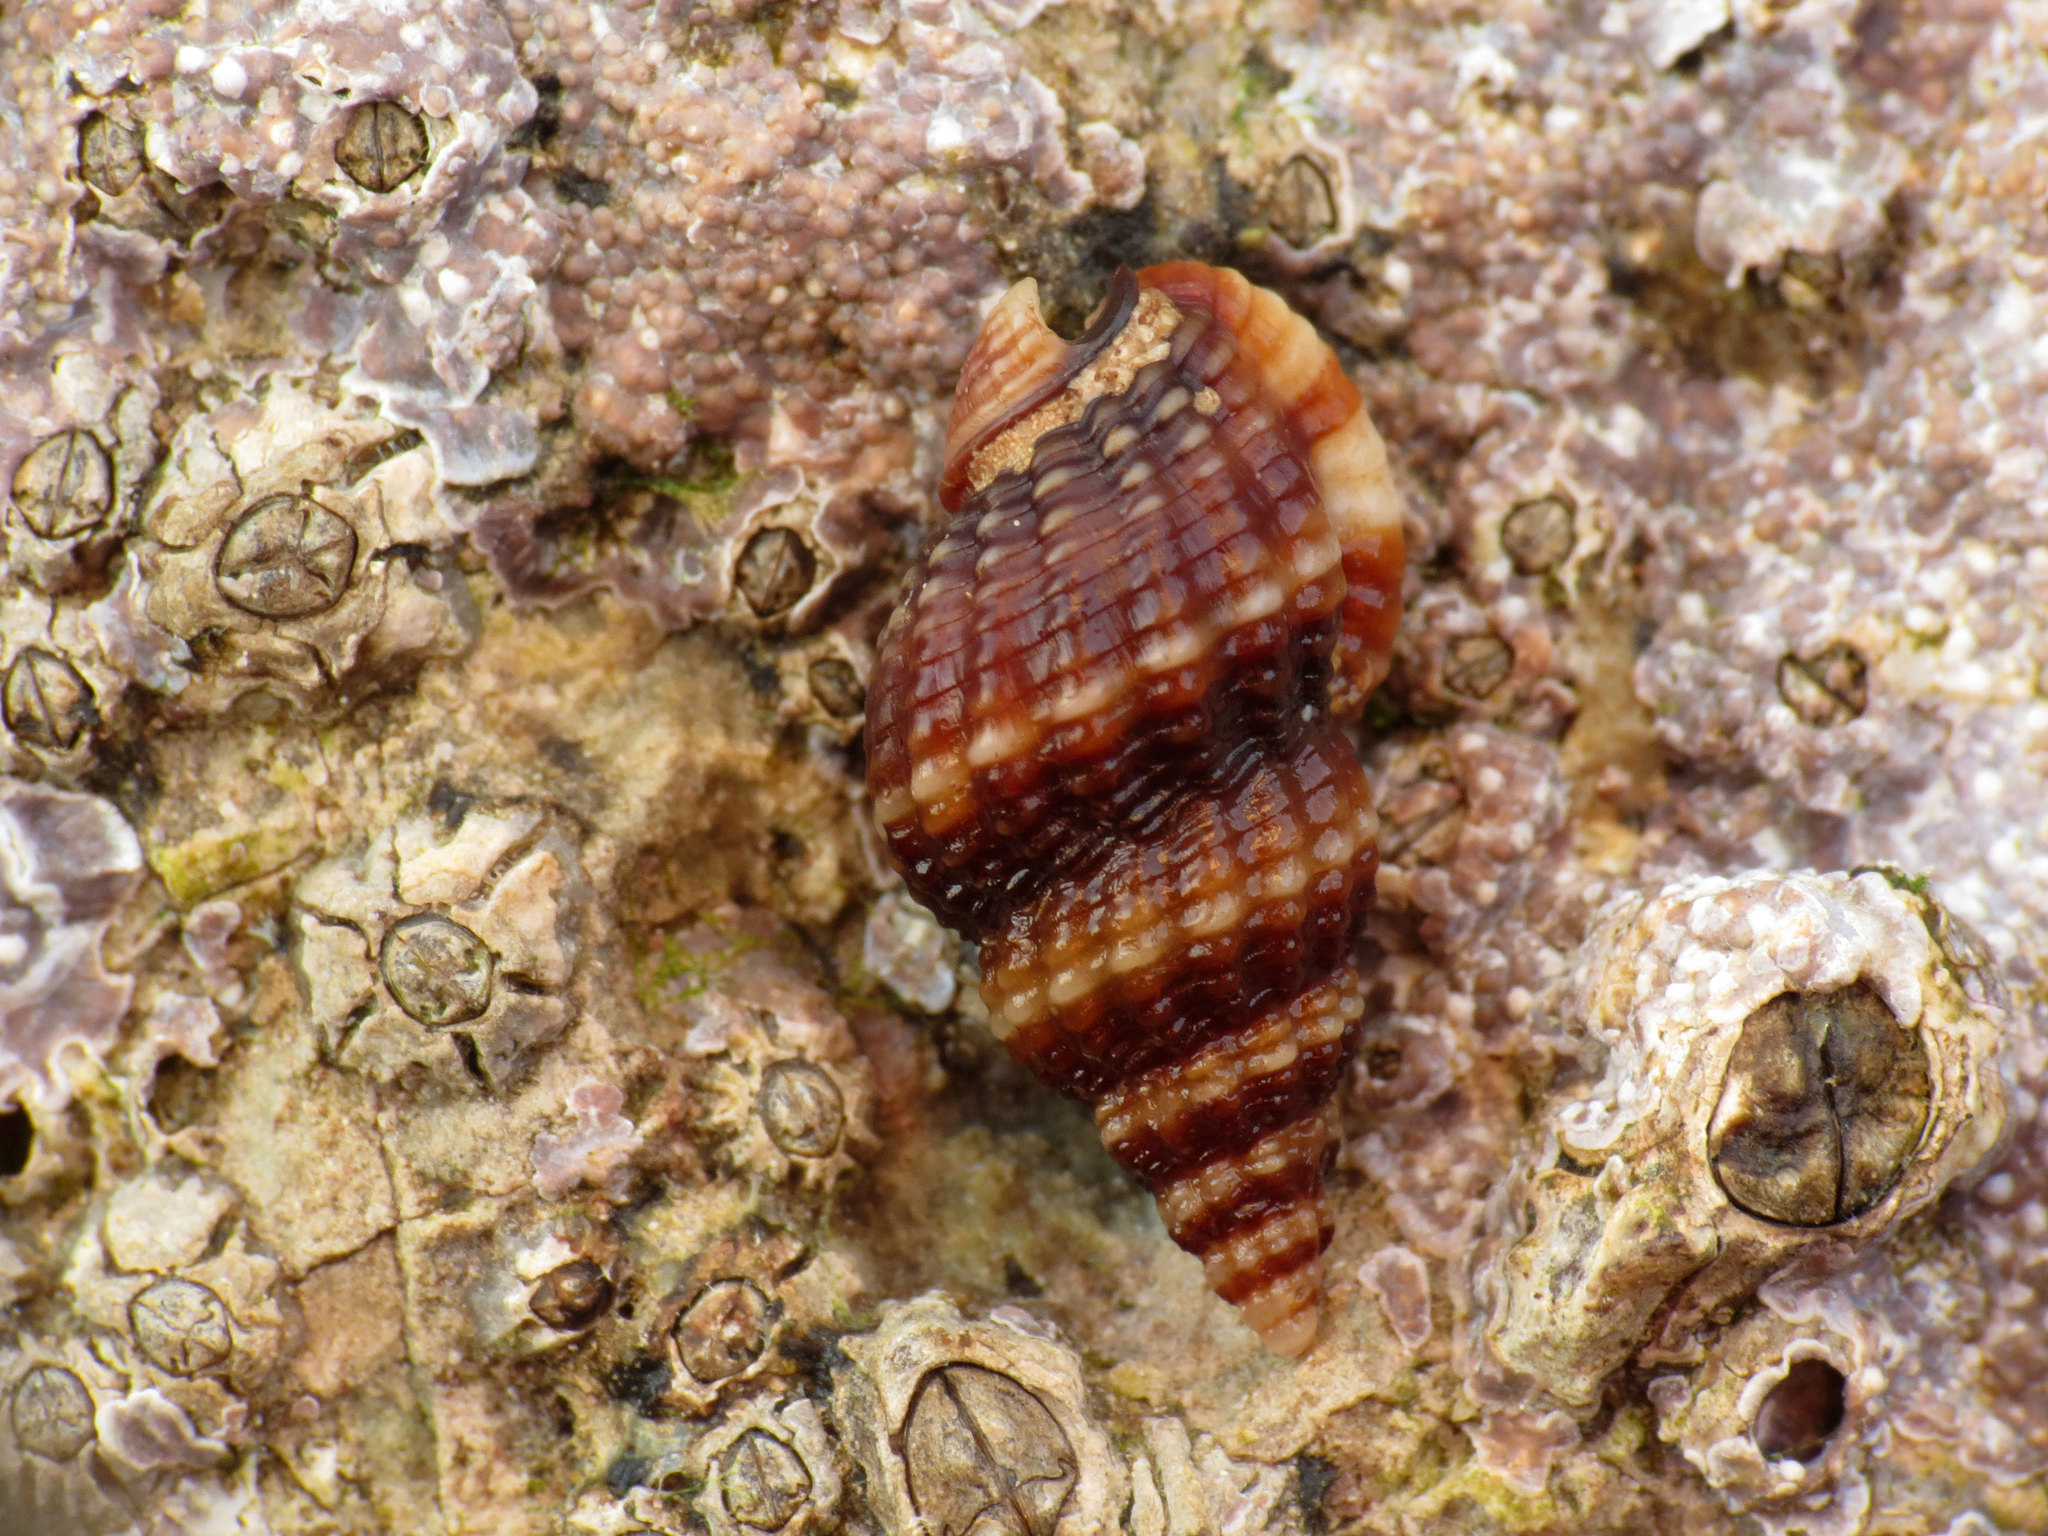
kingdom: Animalia
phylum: Mollusca
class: Gastropoda
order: Neogastropoda
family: Nassariidae
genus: Tritia
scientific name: Tritia incrassata
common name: Thick-lipped dog whelk
